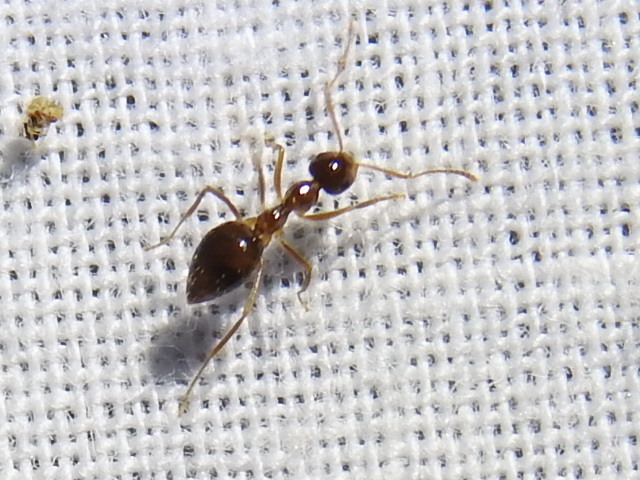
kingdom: Animalia
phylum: Arthropoda
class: Insecta
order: Hymenoptera
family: Formicidae
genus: Prenolepis
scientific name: Prenolepis imparis
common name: Small honey ant
